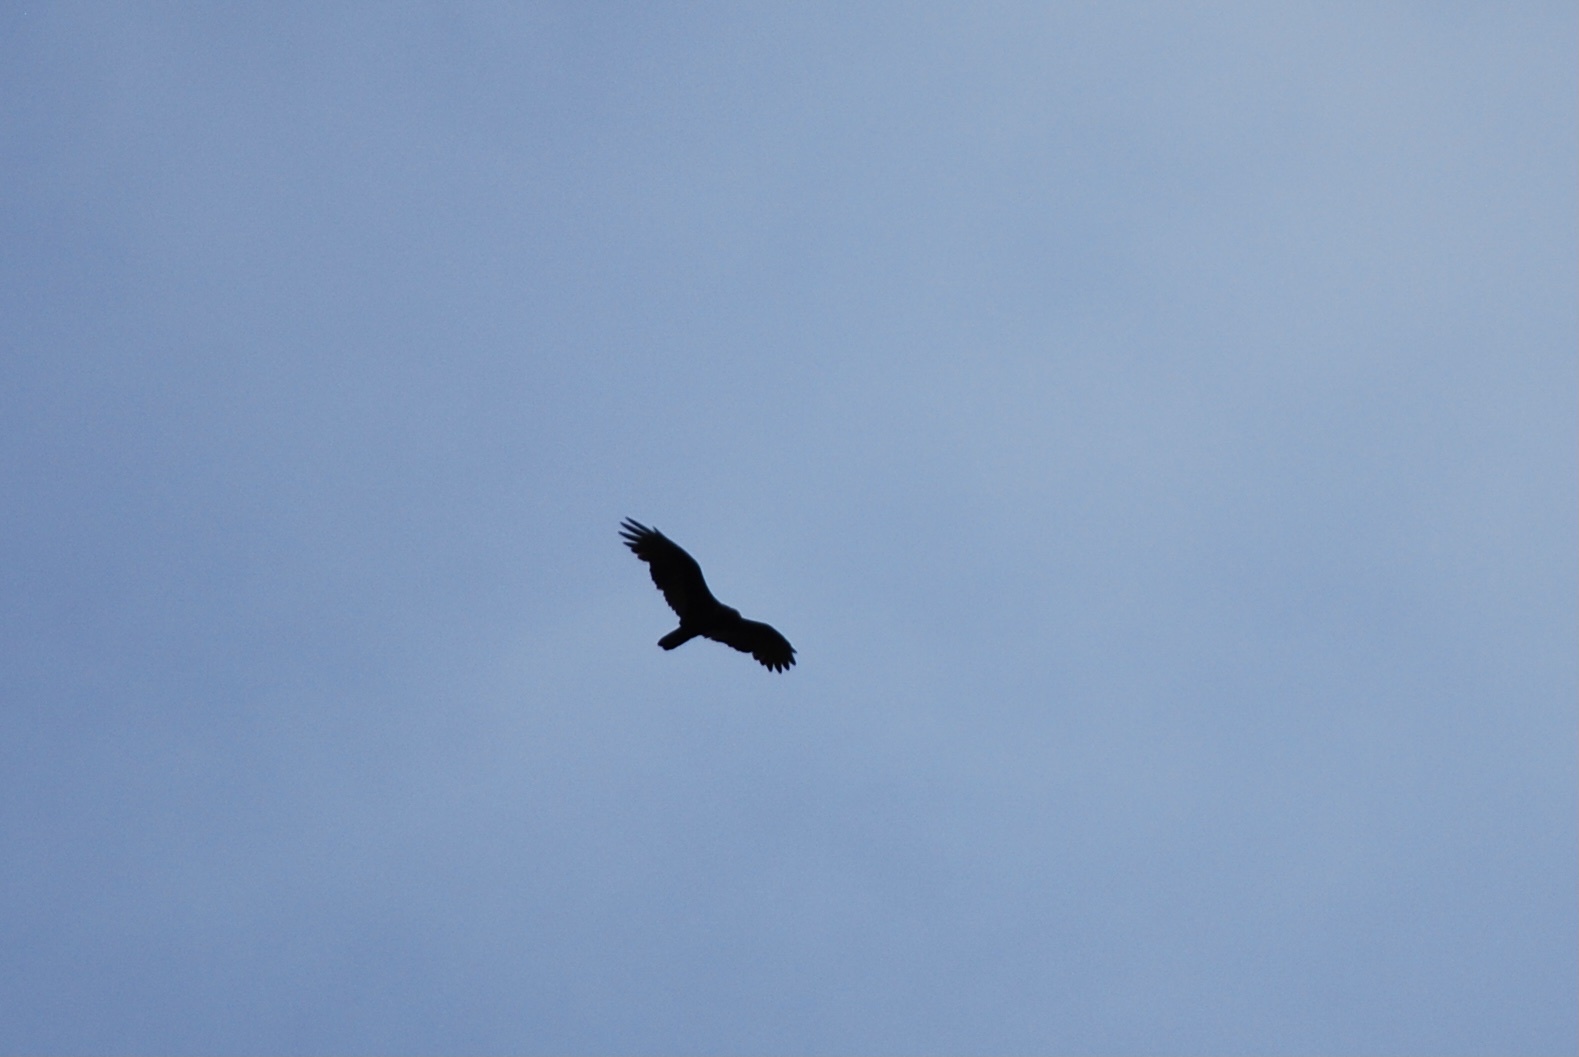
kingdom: Animalia
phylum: Chordata
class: Aves
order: Accipitriformes
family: Cathartidae
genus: Cathartes
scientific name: Cathartes aura
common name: Turkey vulture
